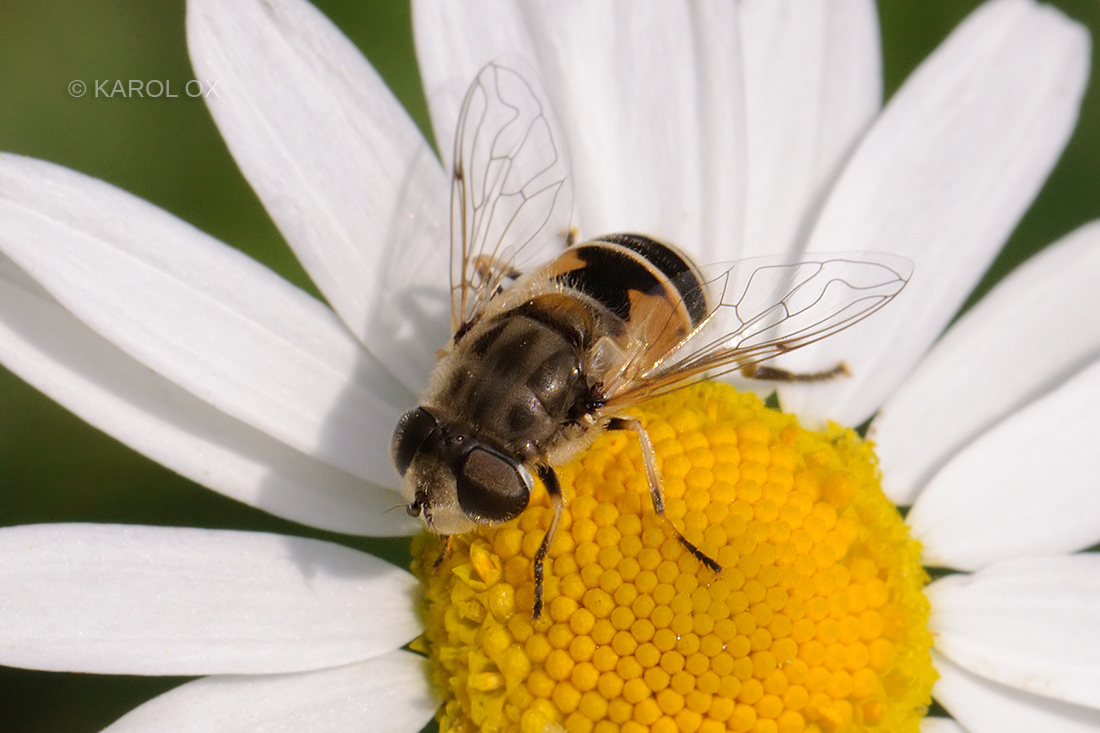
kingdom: Animalia
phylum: Arthropoda
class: Insecta
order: Diptera
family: Syrphidae
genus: Eristalis
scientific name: Eristalis arbustorum
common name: Hover fly
